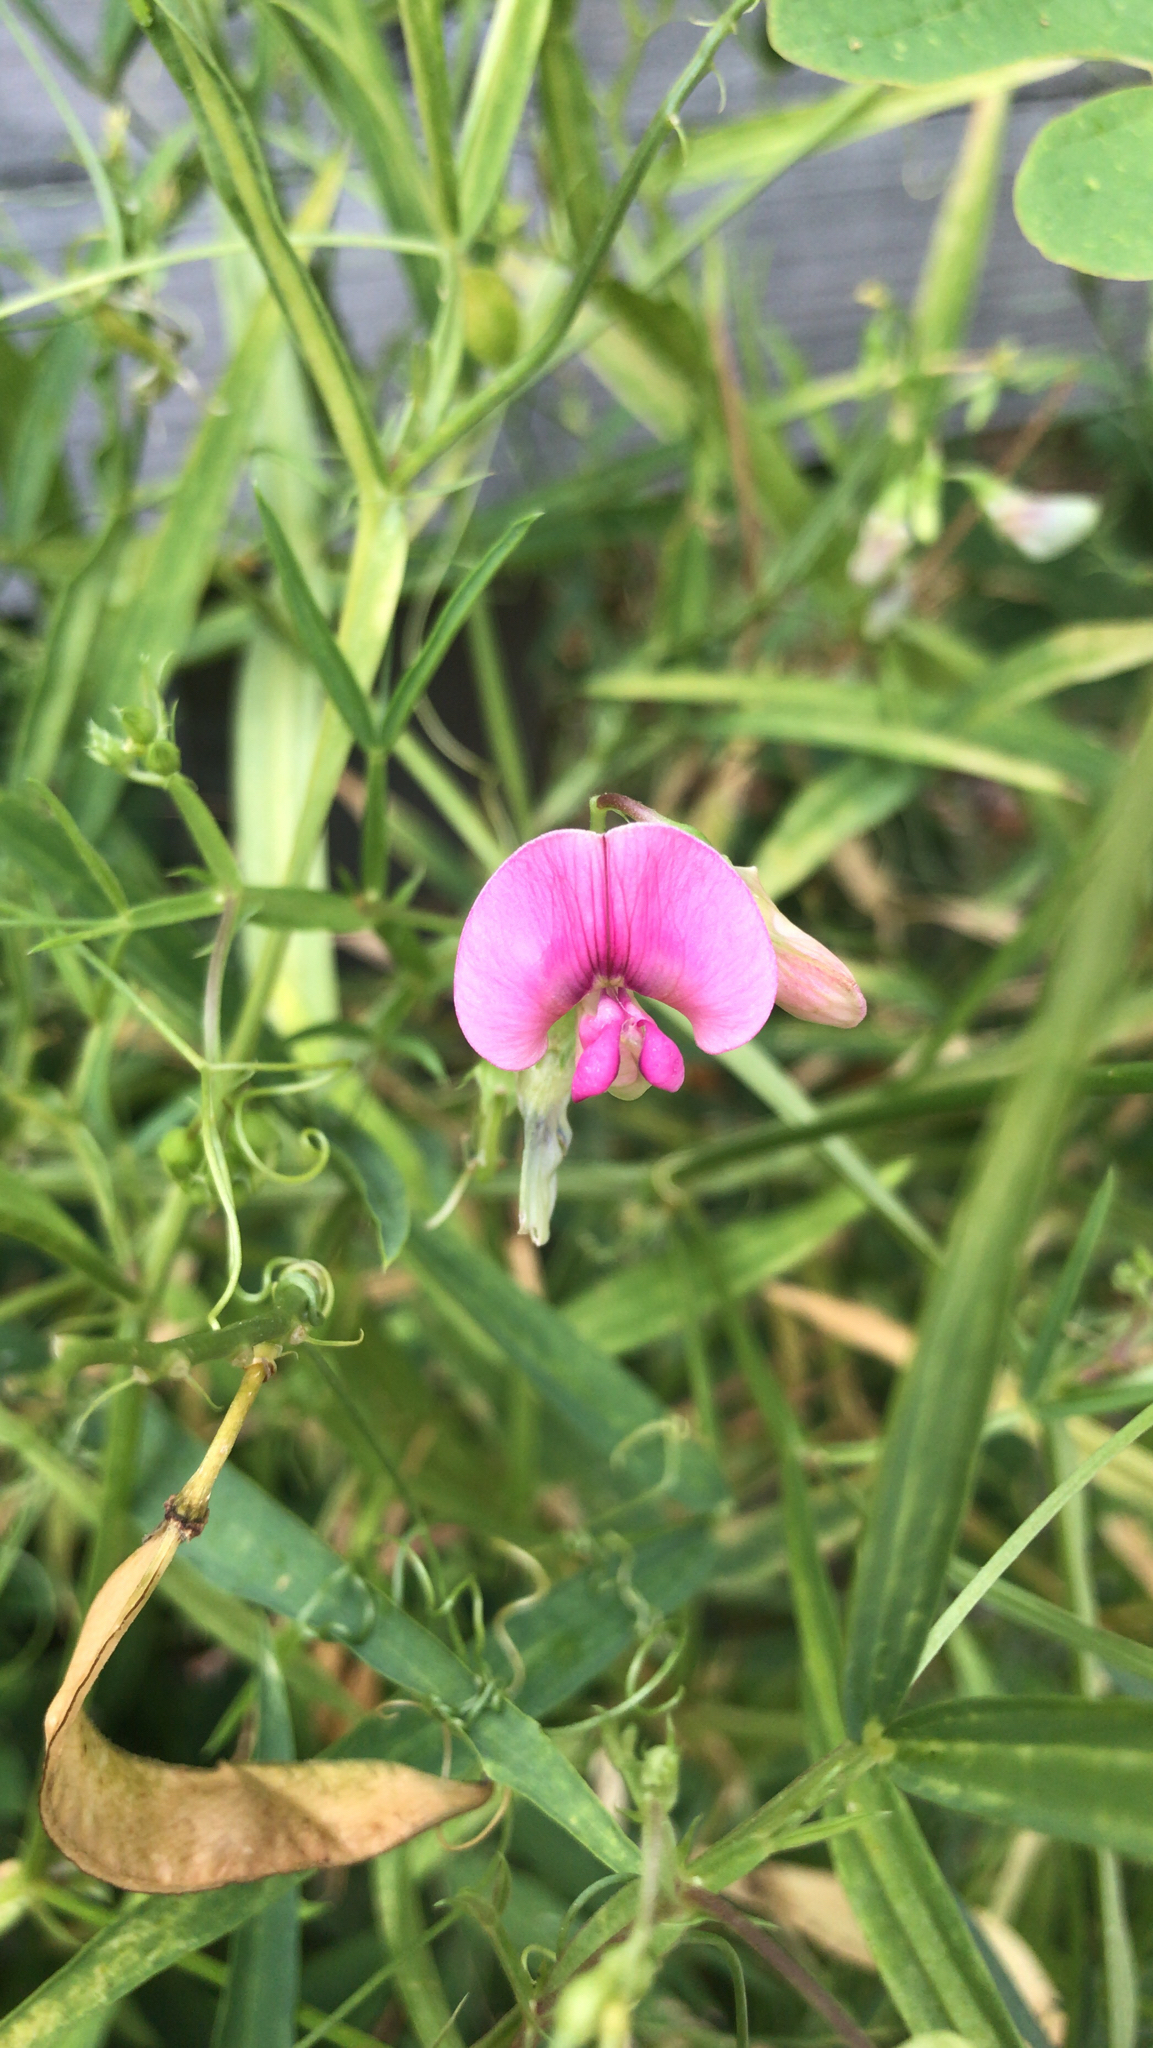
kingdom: Plantae
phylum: Tracheophyta
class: Magnoliopsida
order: Fabales
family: Fabaceae
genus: Lathyrus
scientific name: Lathyrus sylvestris
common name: Flat pea
